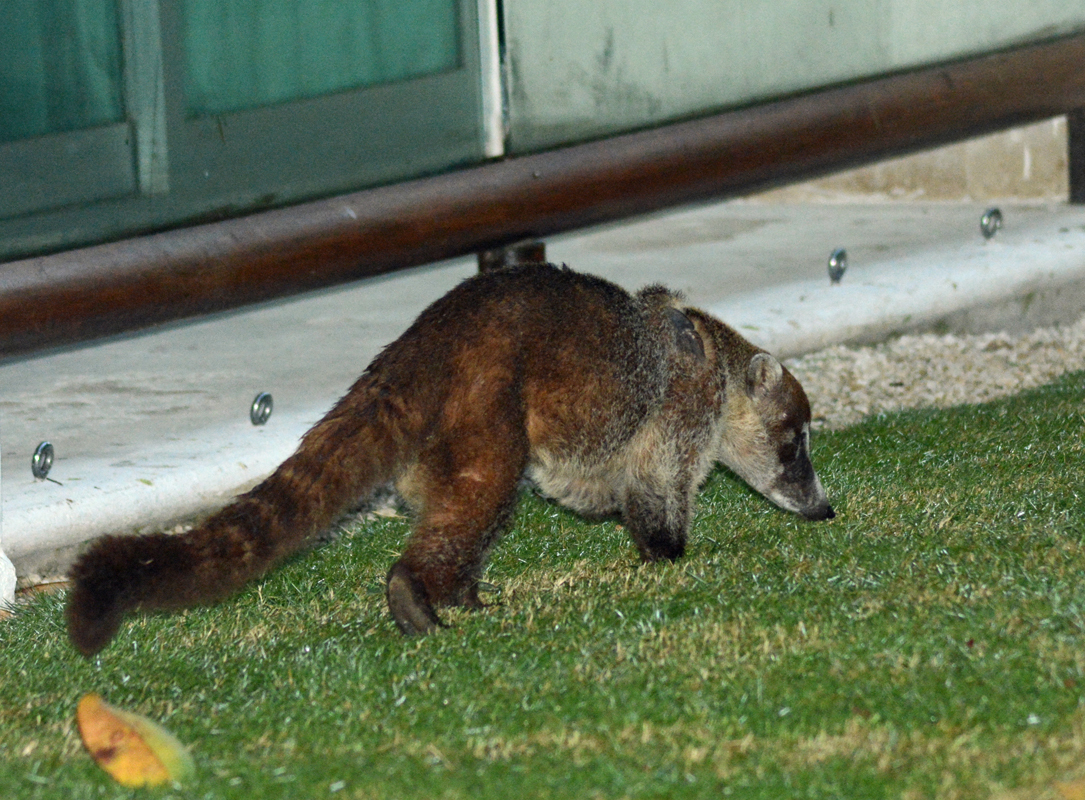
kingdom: Animalia
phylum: Chordata
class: Mammalia
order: Carnivora
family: Procyonidae
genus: Nasua
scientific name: Nasua narica
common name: White-nosed coati
